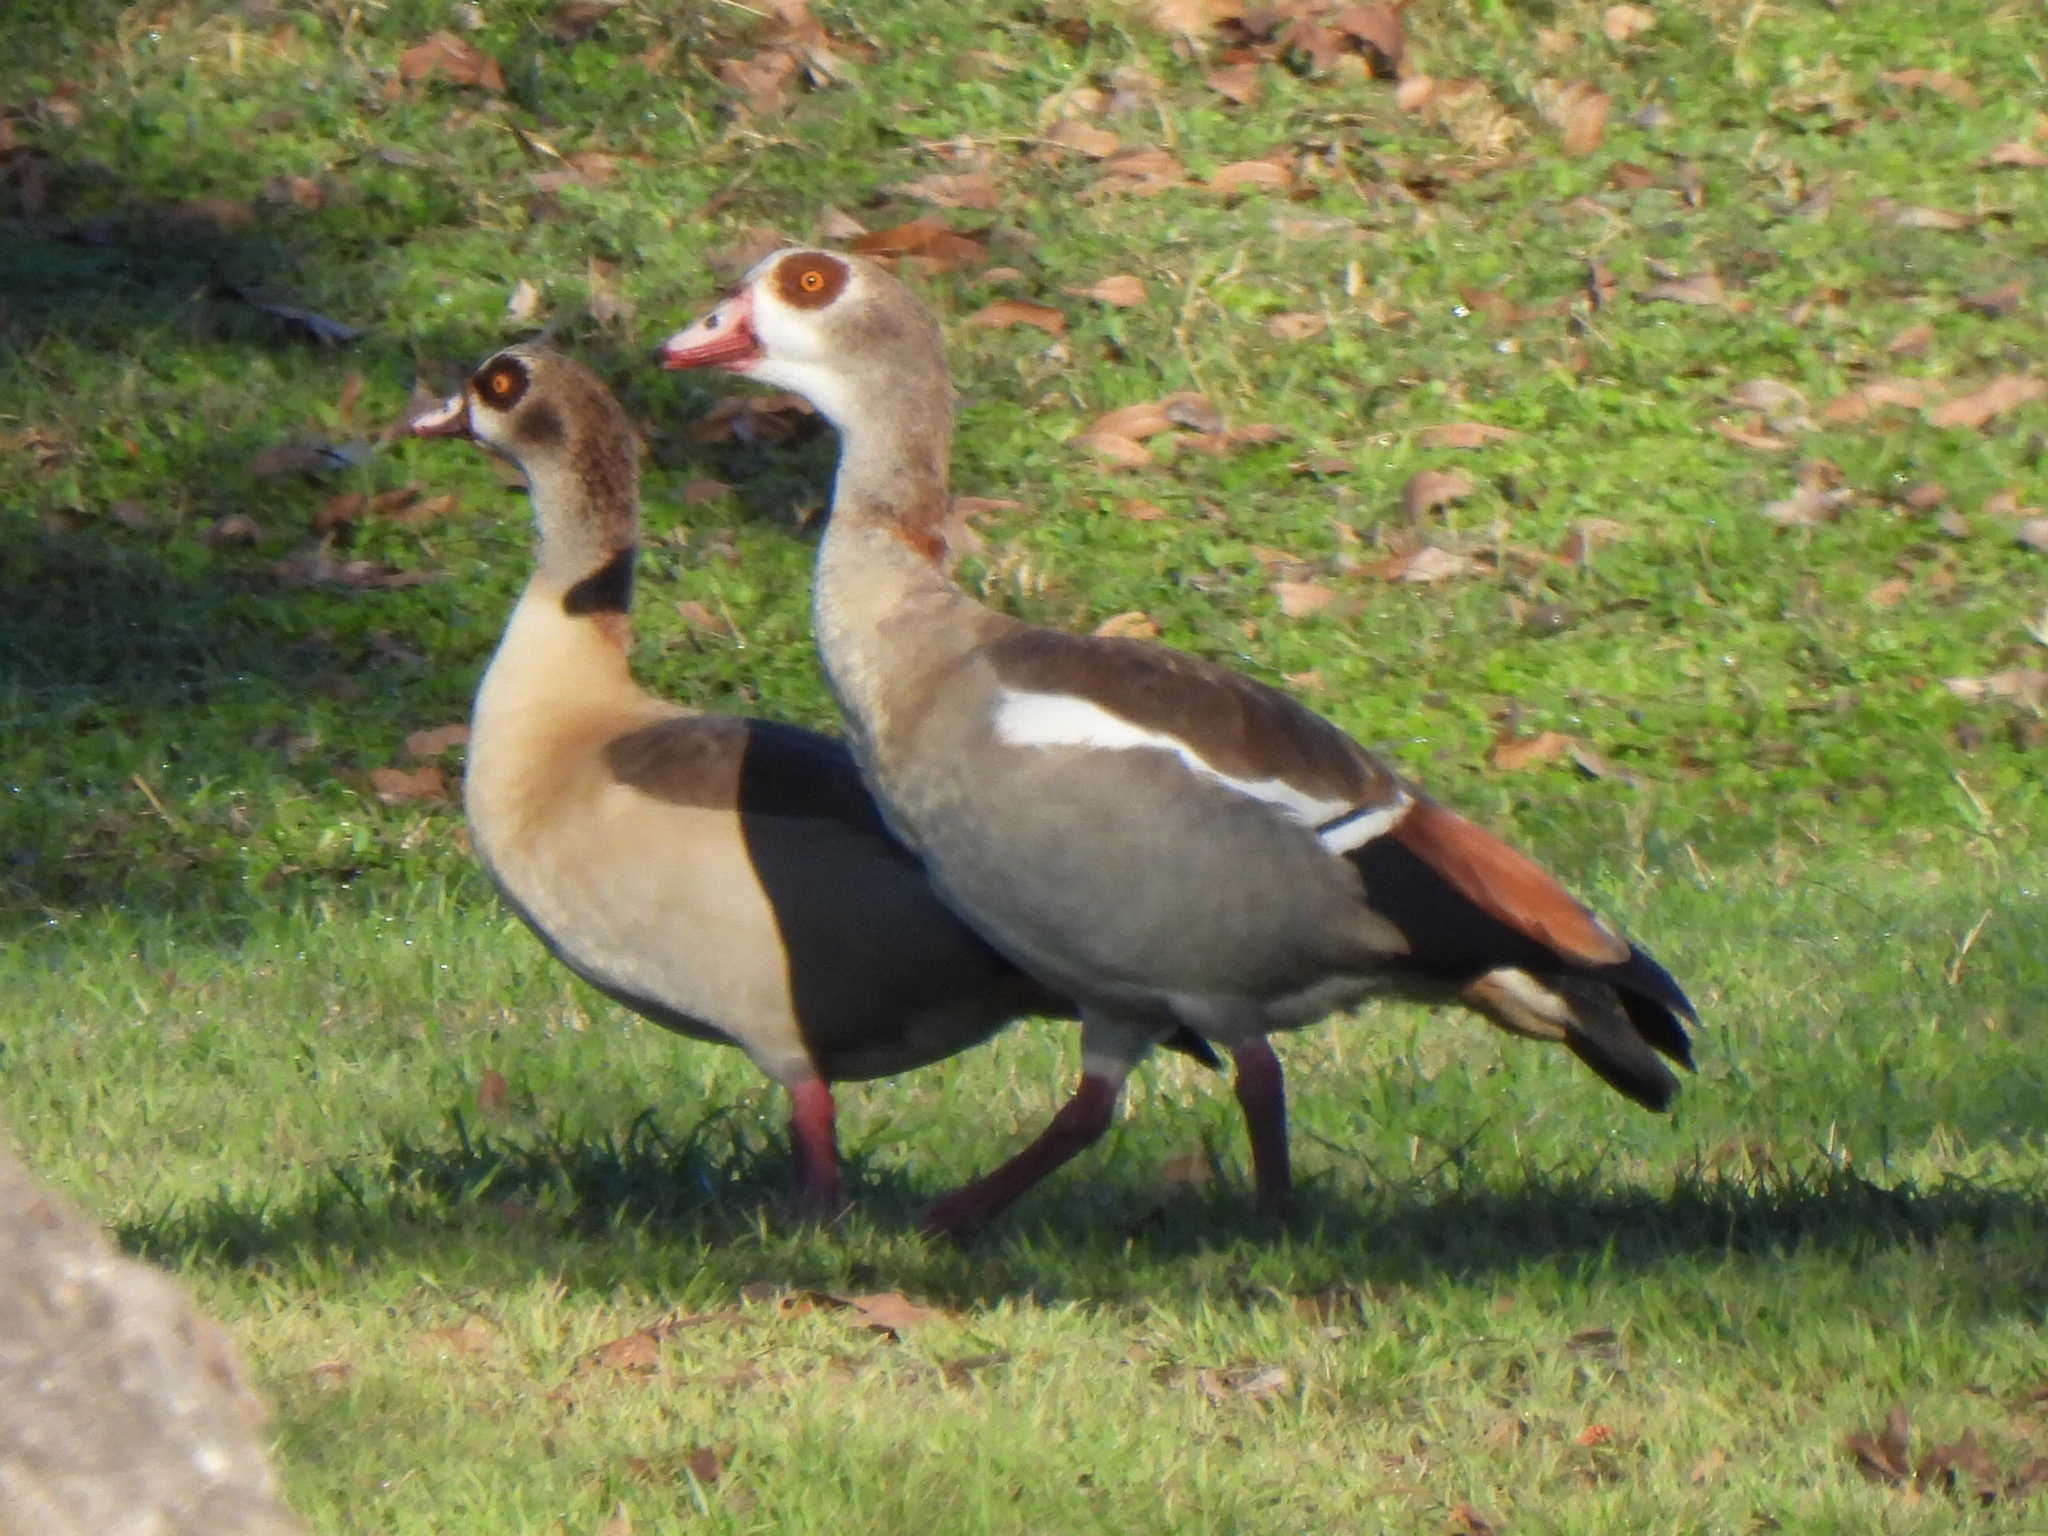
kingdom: Animalia
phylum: Chordata
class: Aves
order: Anseriformes
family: Anatidae
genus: Alopochen
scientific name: Alopochen aegyptiaca
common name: Egyptian goose
